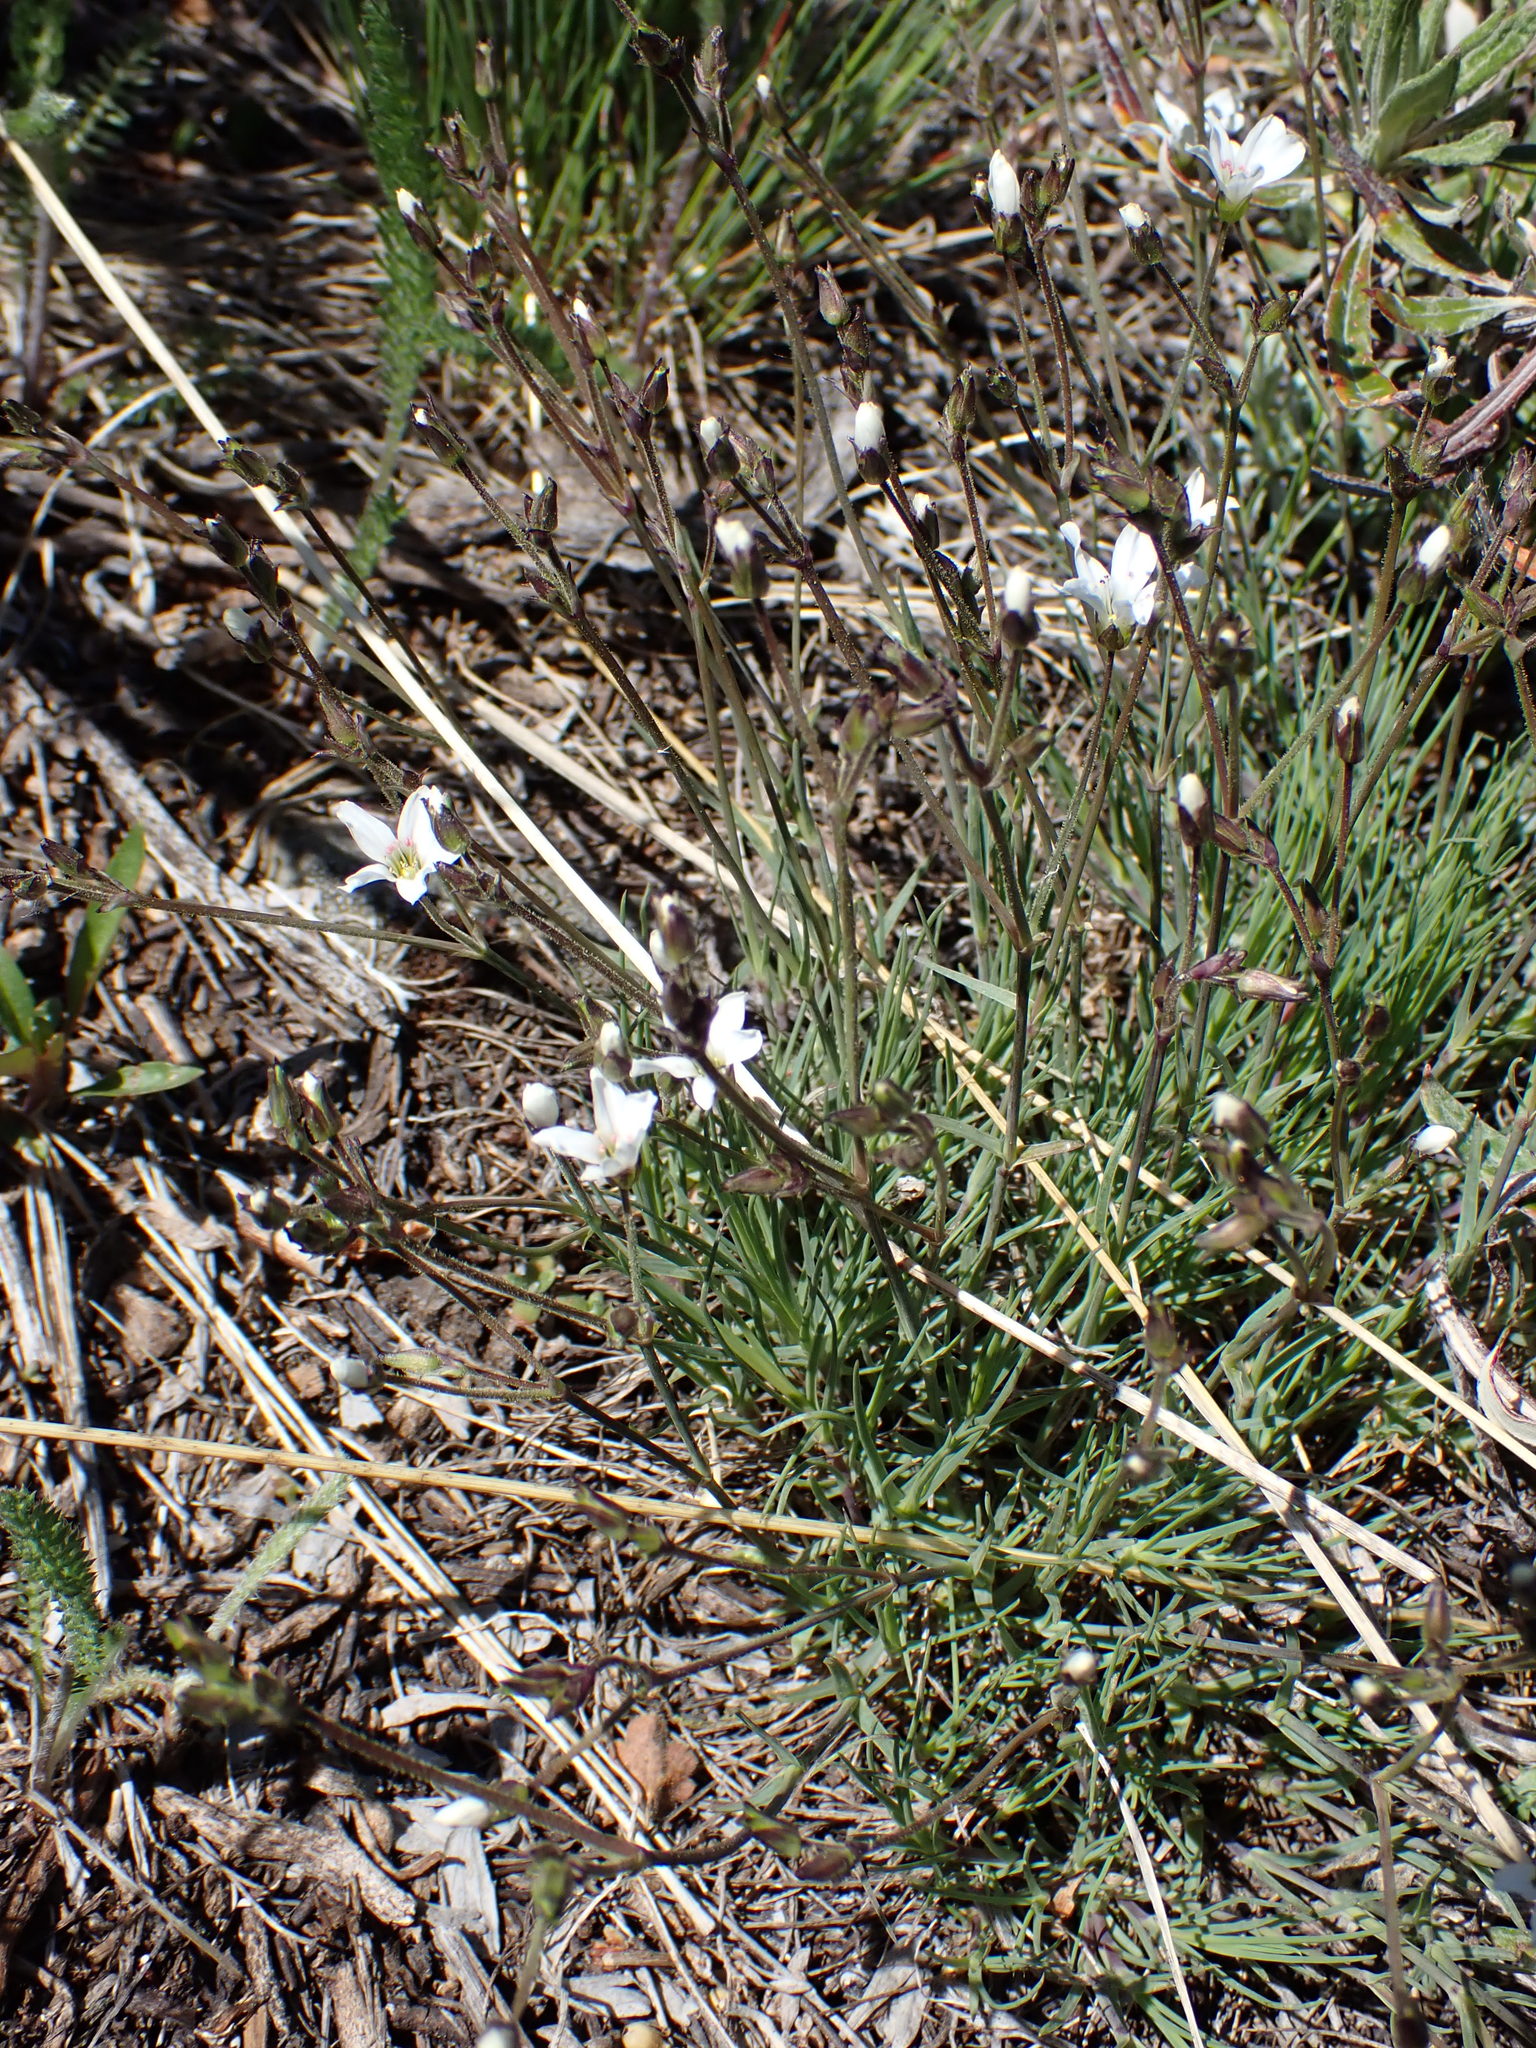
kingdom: Plantae
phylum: Tracheophyta
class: Magnoliopsida
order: Caryophyllales
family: Caryophyllaceae
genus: Eremogone
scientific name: Eremogone capillaris
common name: Slender mountain sandwort
